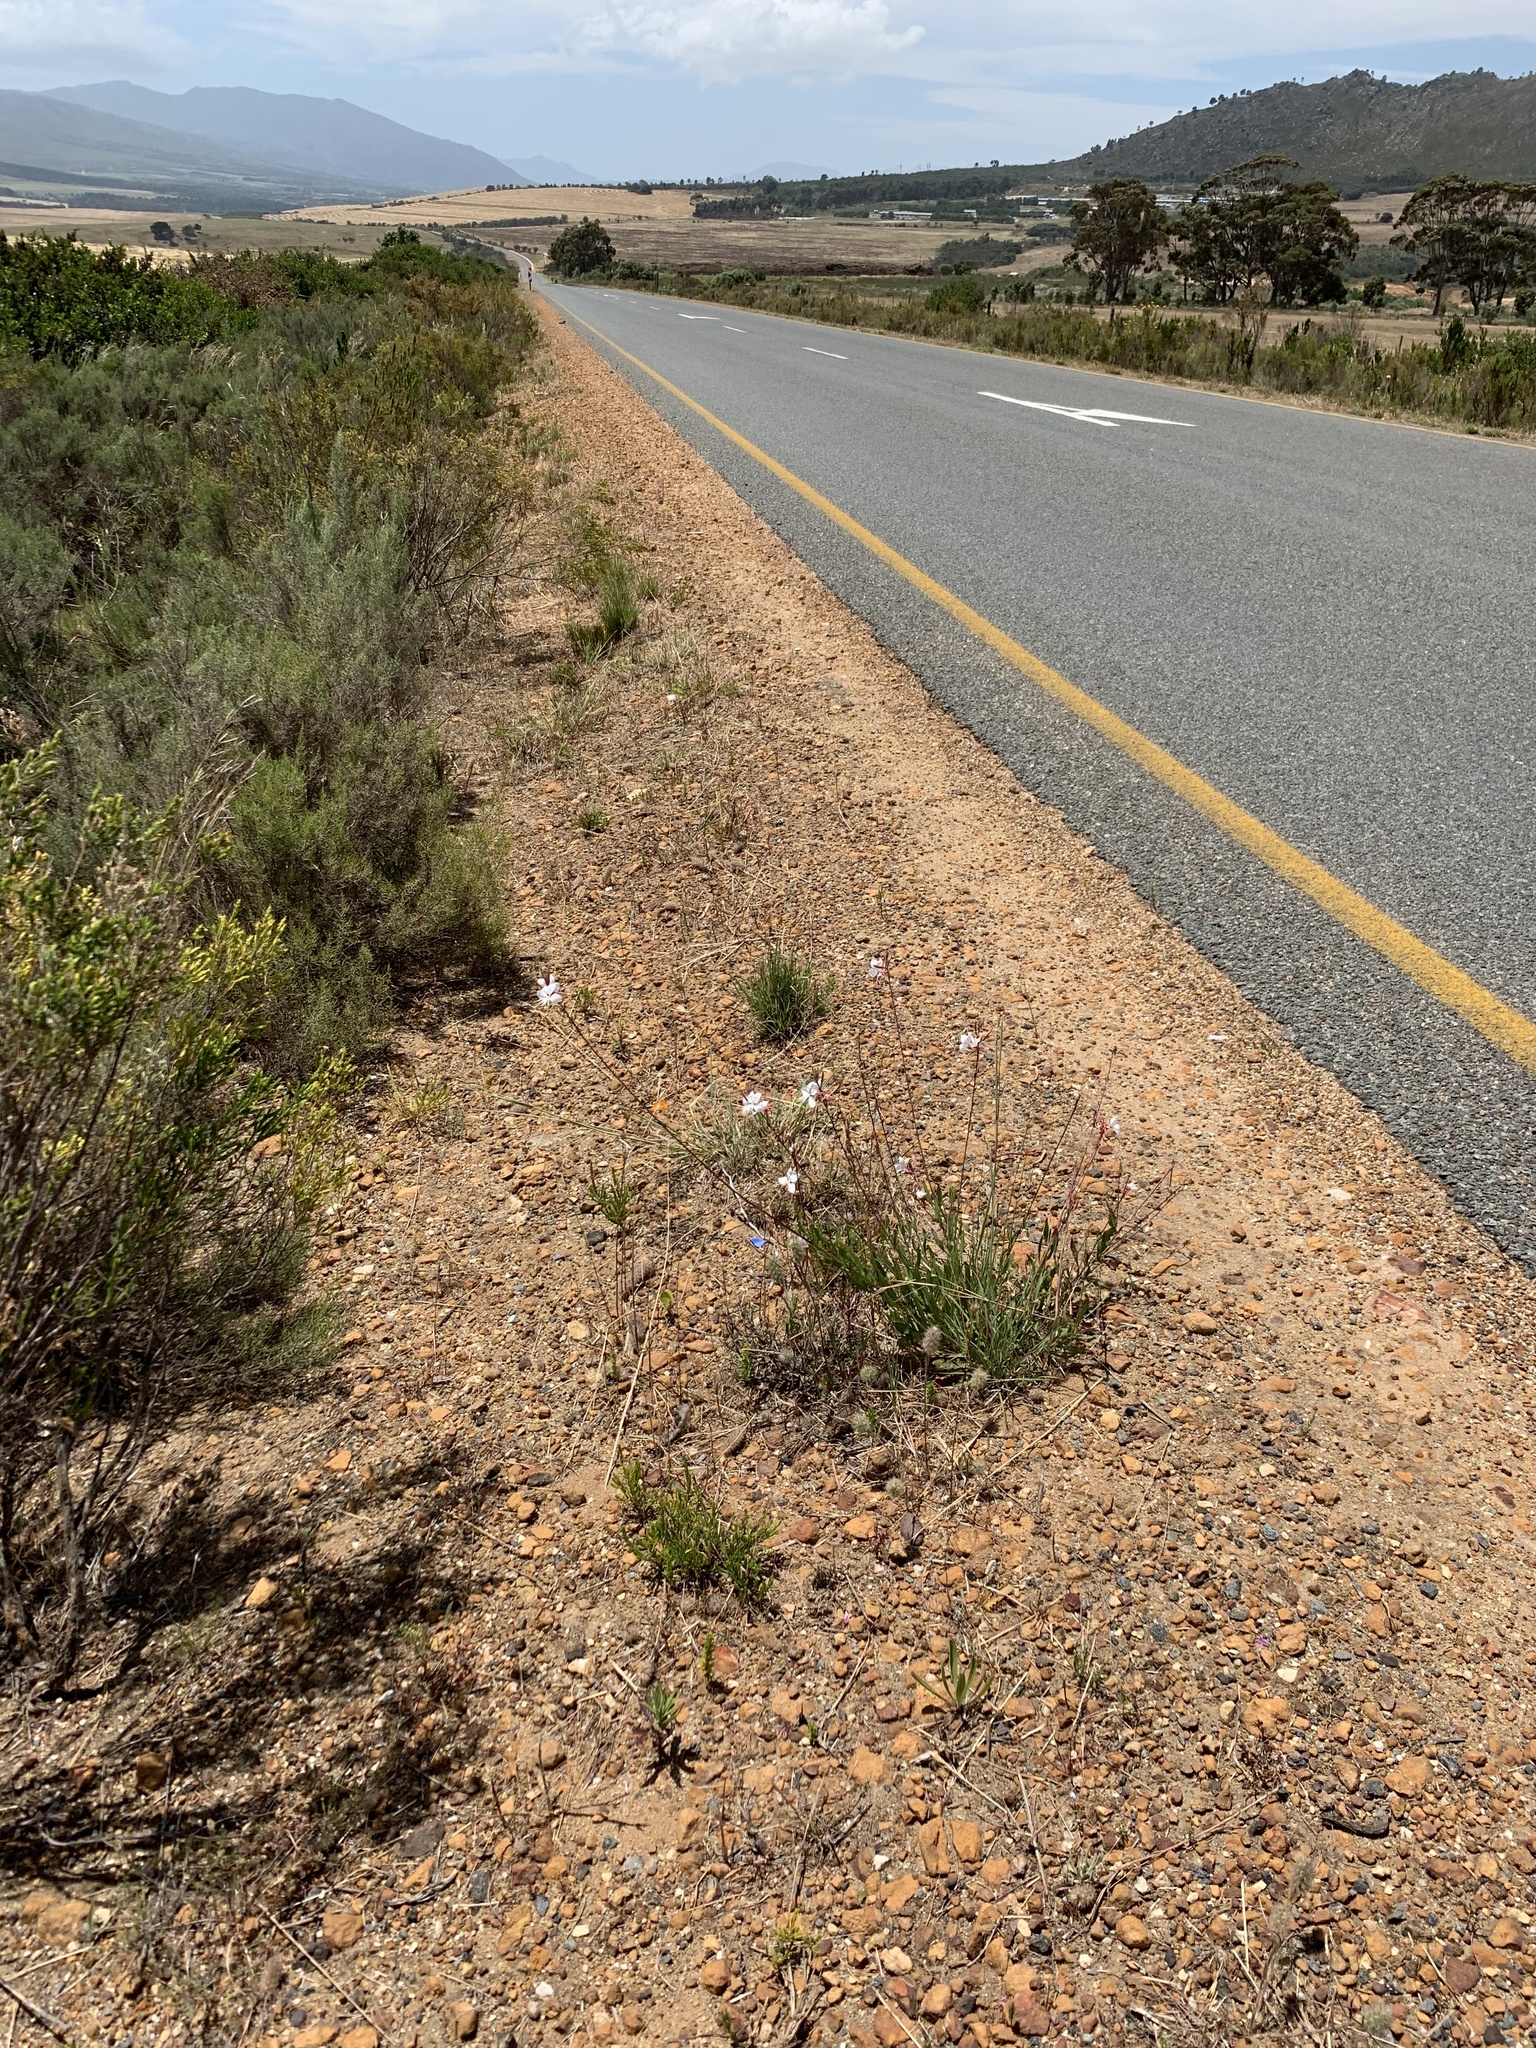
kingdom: Plantae
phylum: Tracheophyta
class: Magnoliopsida
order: Myrtales
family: Onagraceae
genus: Oenothera
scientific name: Oenothera lindheimeri
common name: Lindheimer's beeblossom
